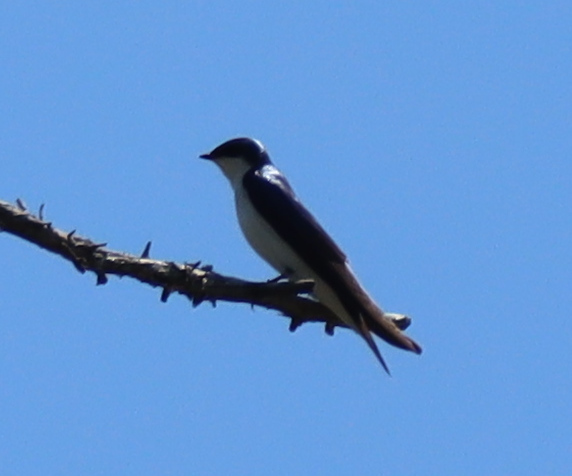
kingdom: Animalia
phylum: Chordata
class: Aves
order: Passeriformes
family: Hirundinidae
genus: Tachycineta
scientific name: Tachycineta bicolor
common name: Tree swallow
